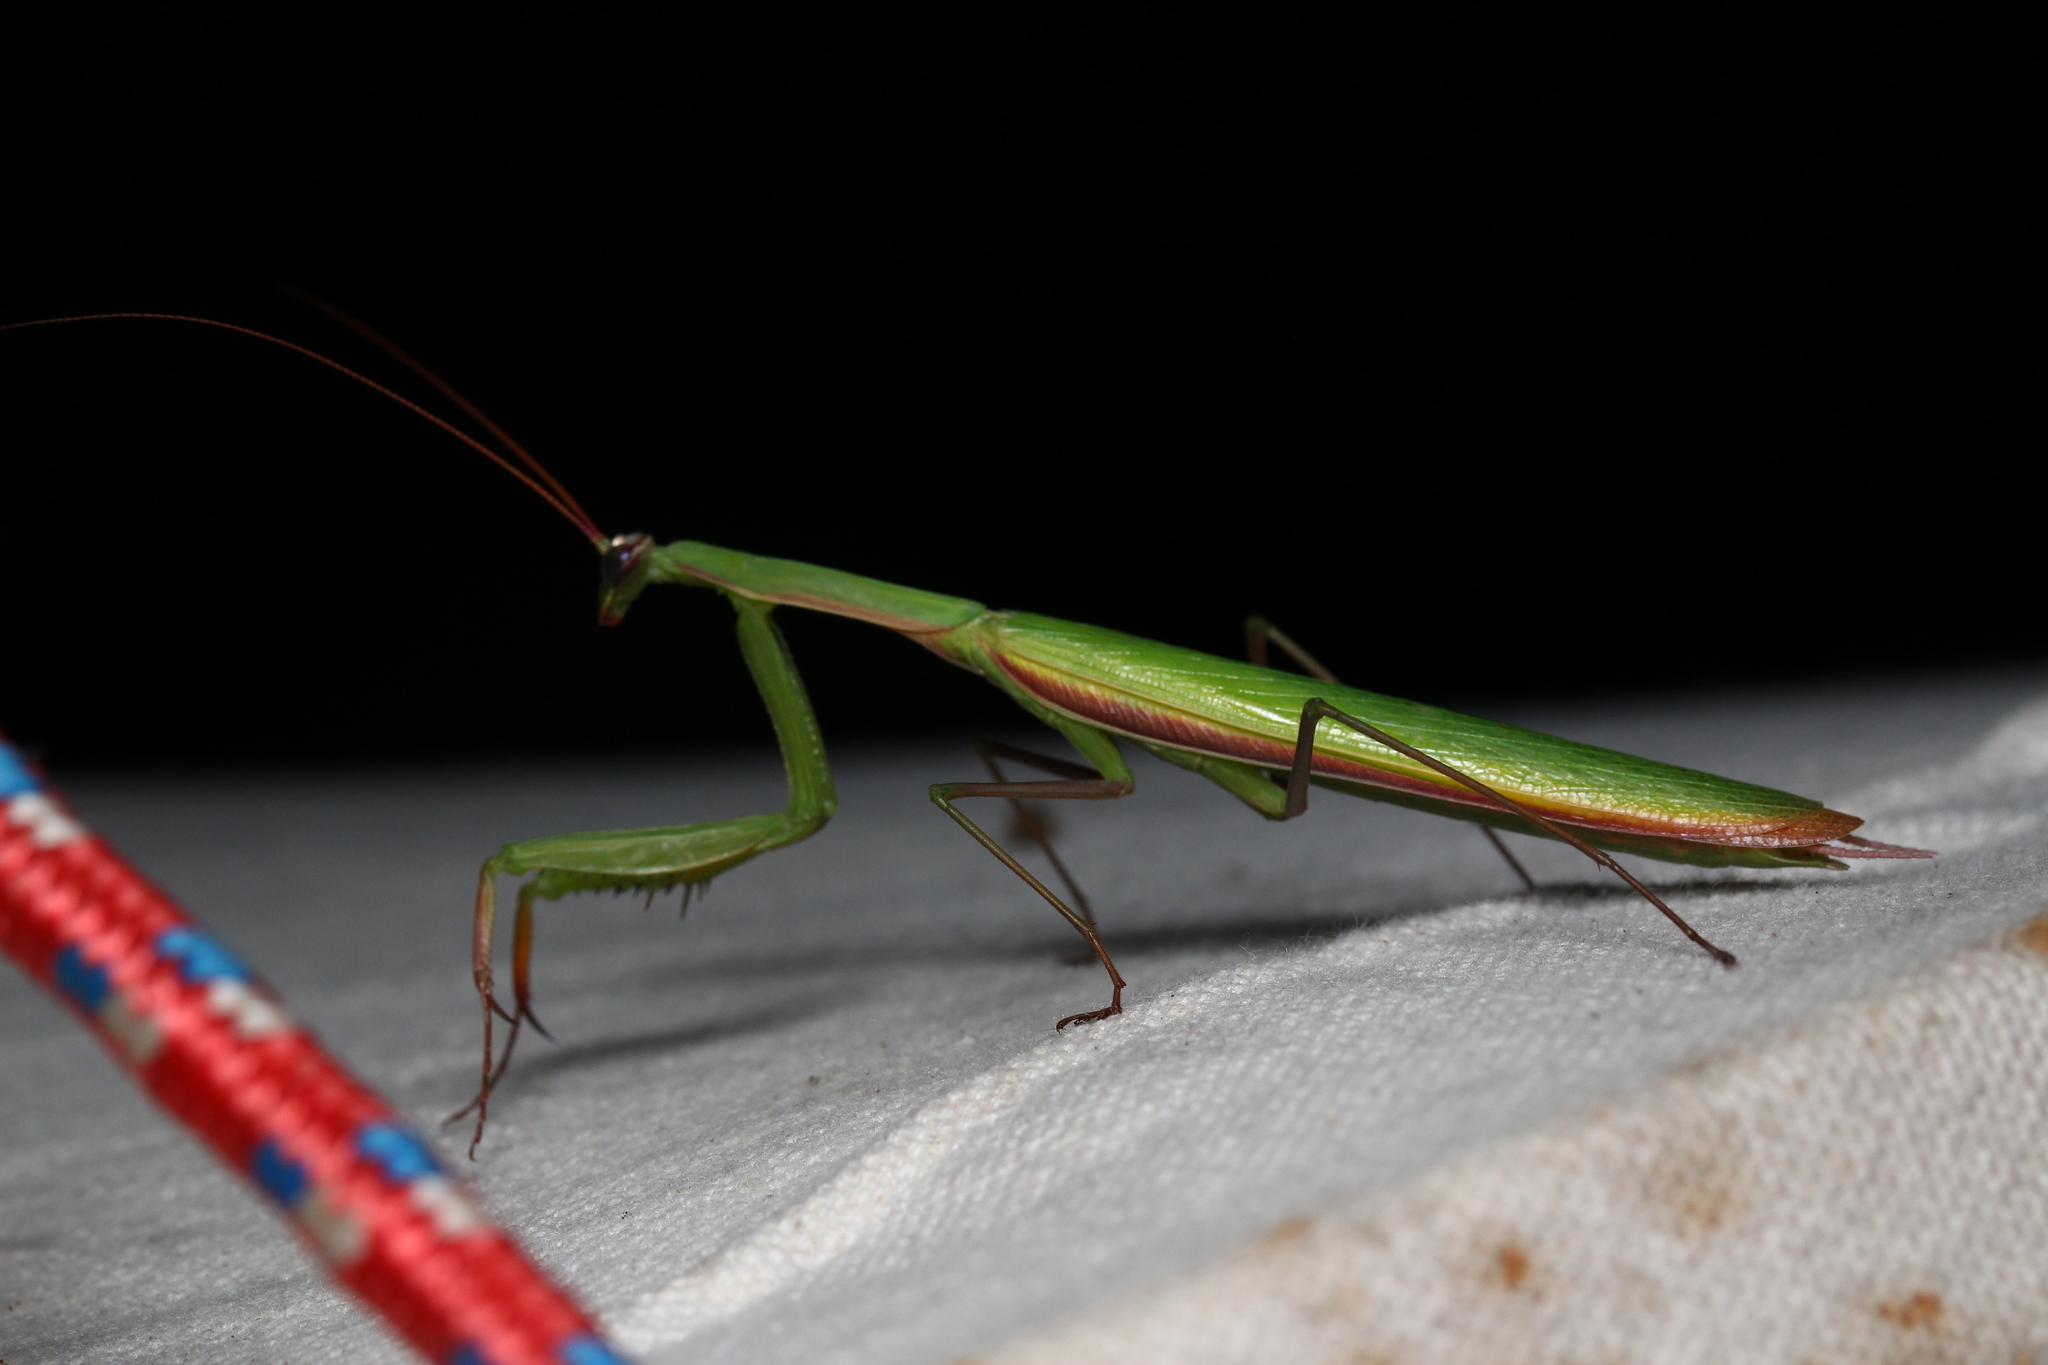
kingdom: Animalia
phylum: Arthropoda
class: Insecta
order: Mantodea
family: Mantidae
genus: Mantis
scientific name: Mantis religiosa
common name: Praying mantis
